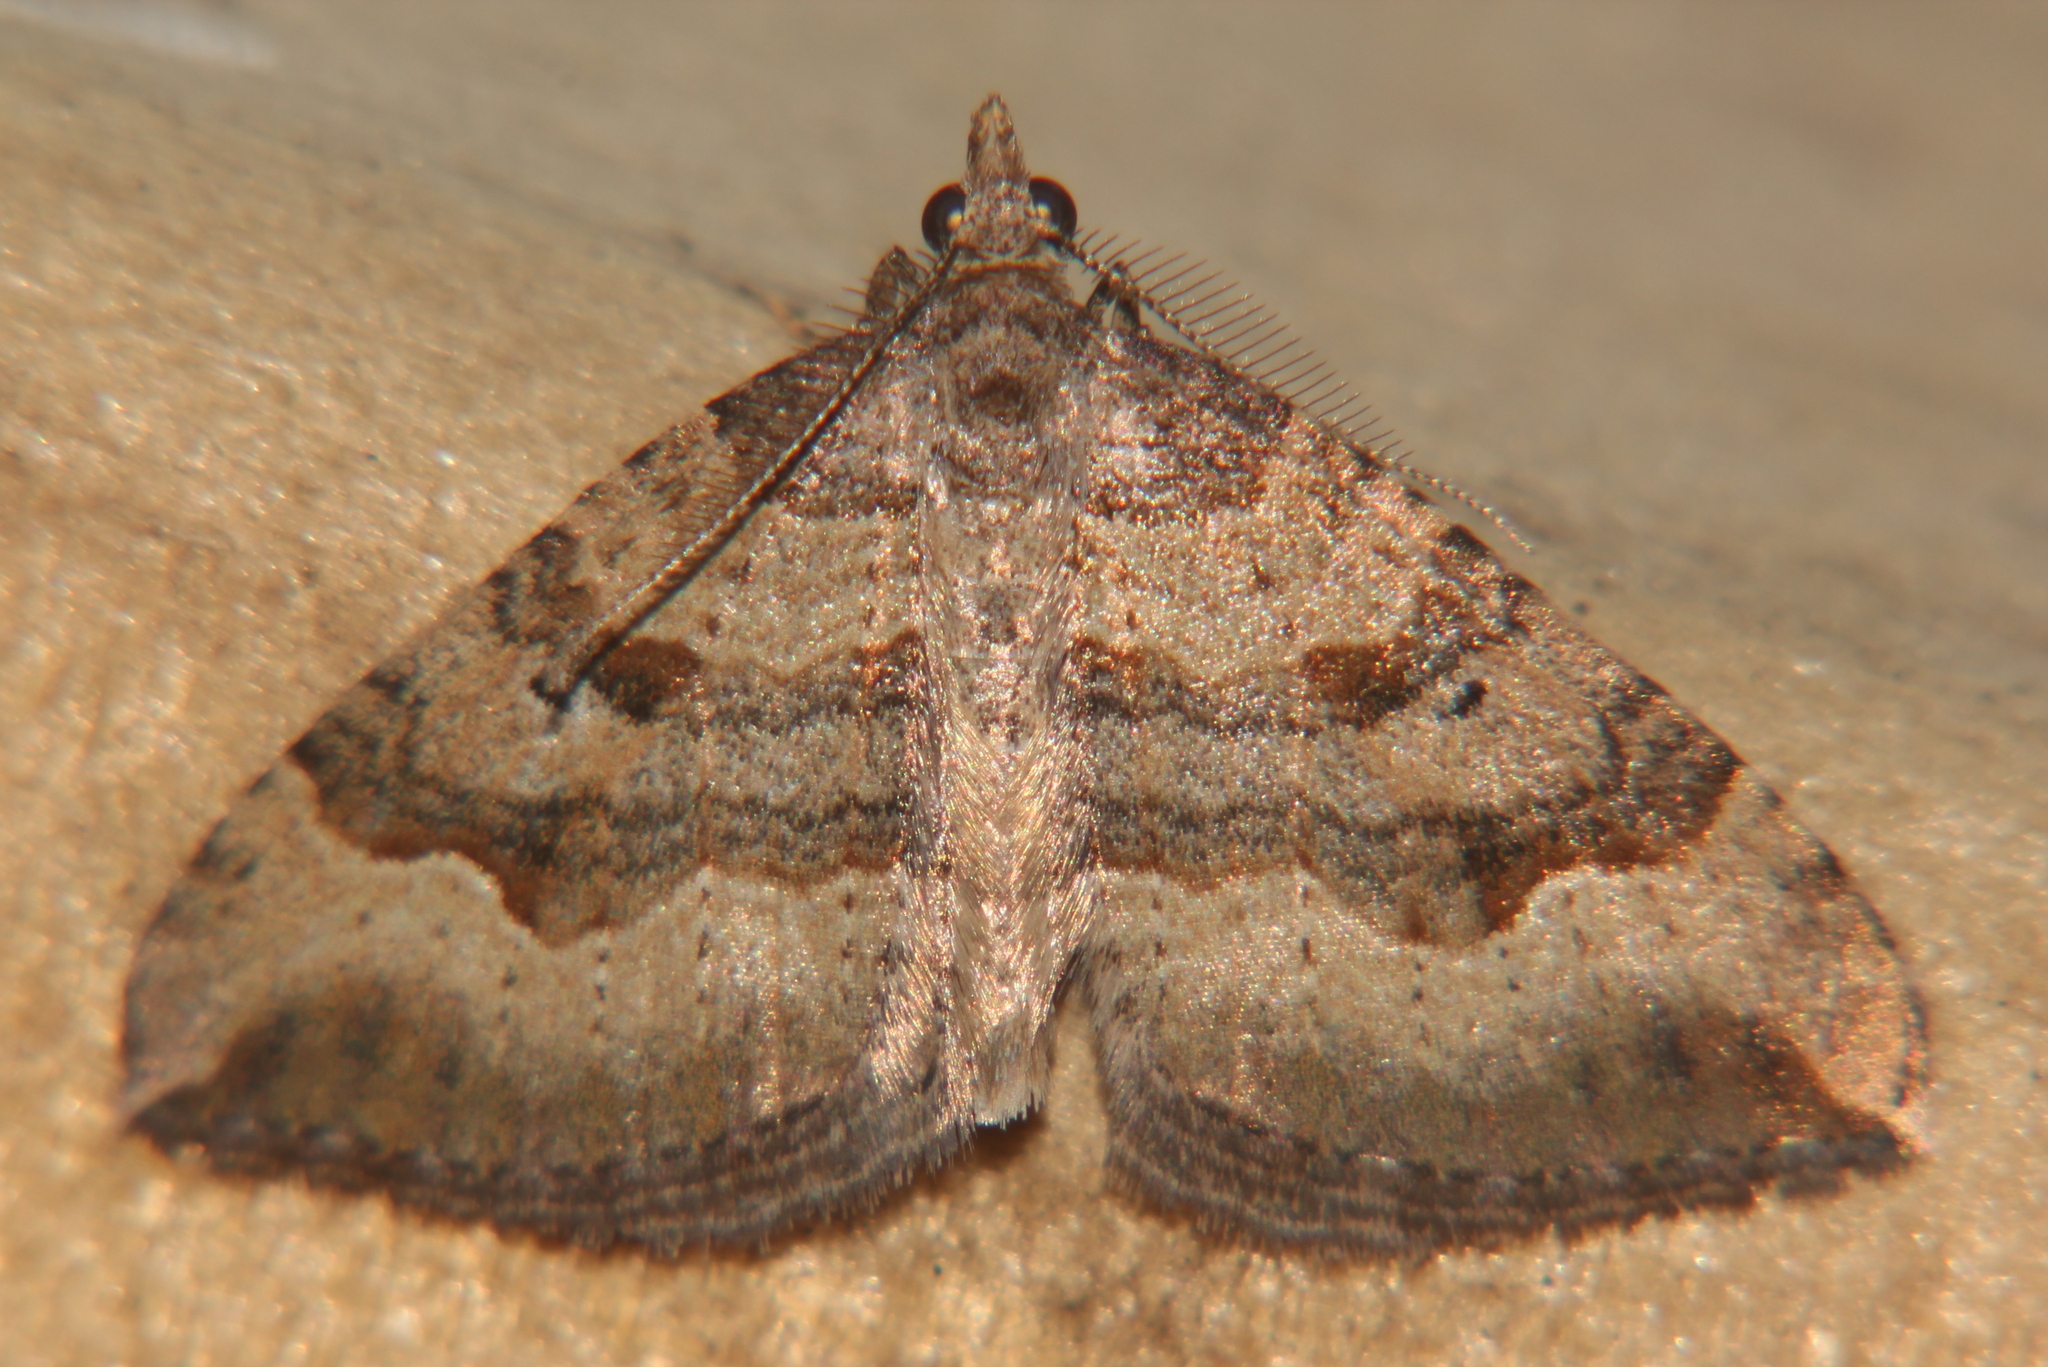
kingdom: Animalia
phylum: Arthropoda
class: Insecta
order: Lepidoptera
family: Geometridae
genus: Epyaxa
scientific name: Epyaxa rosearia
